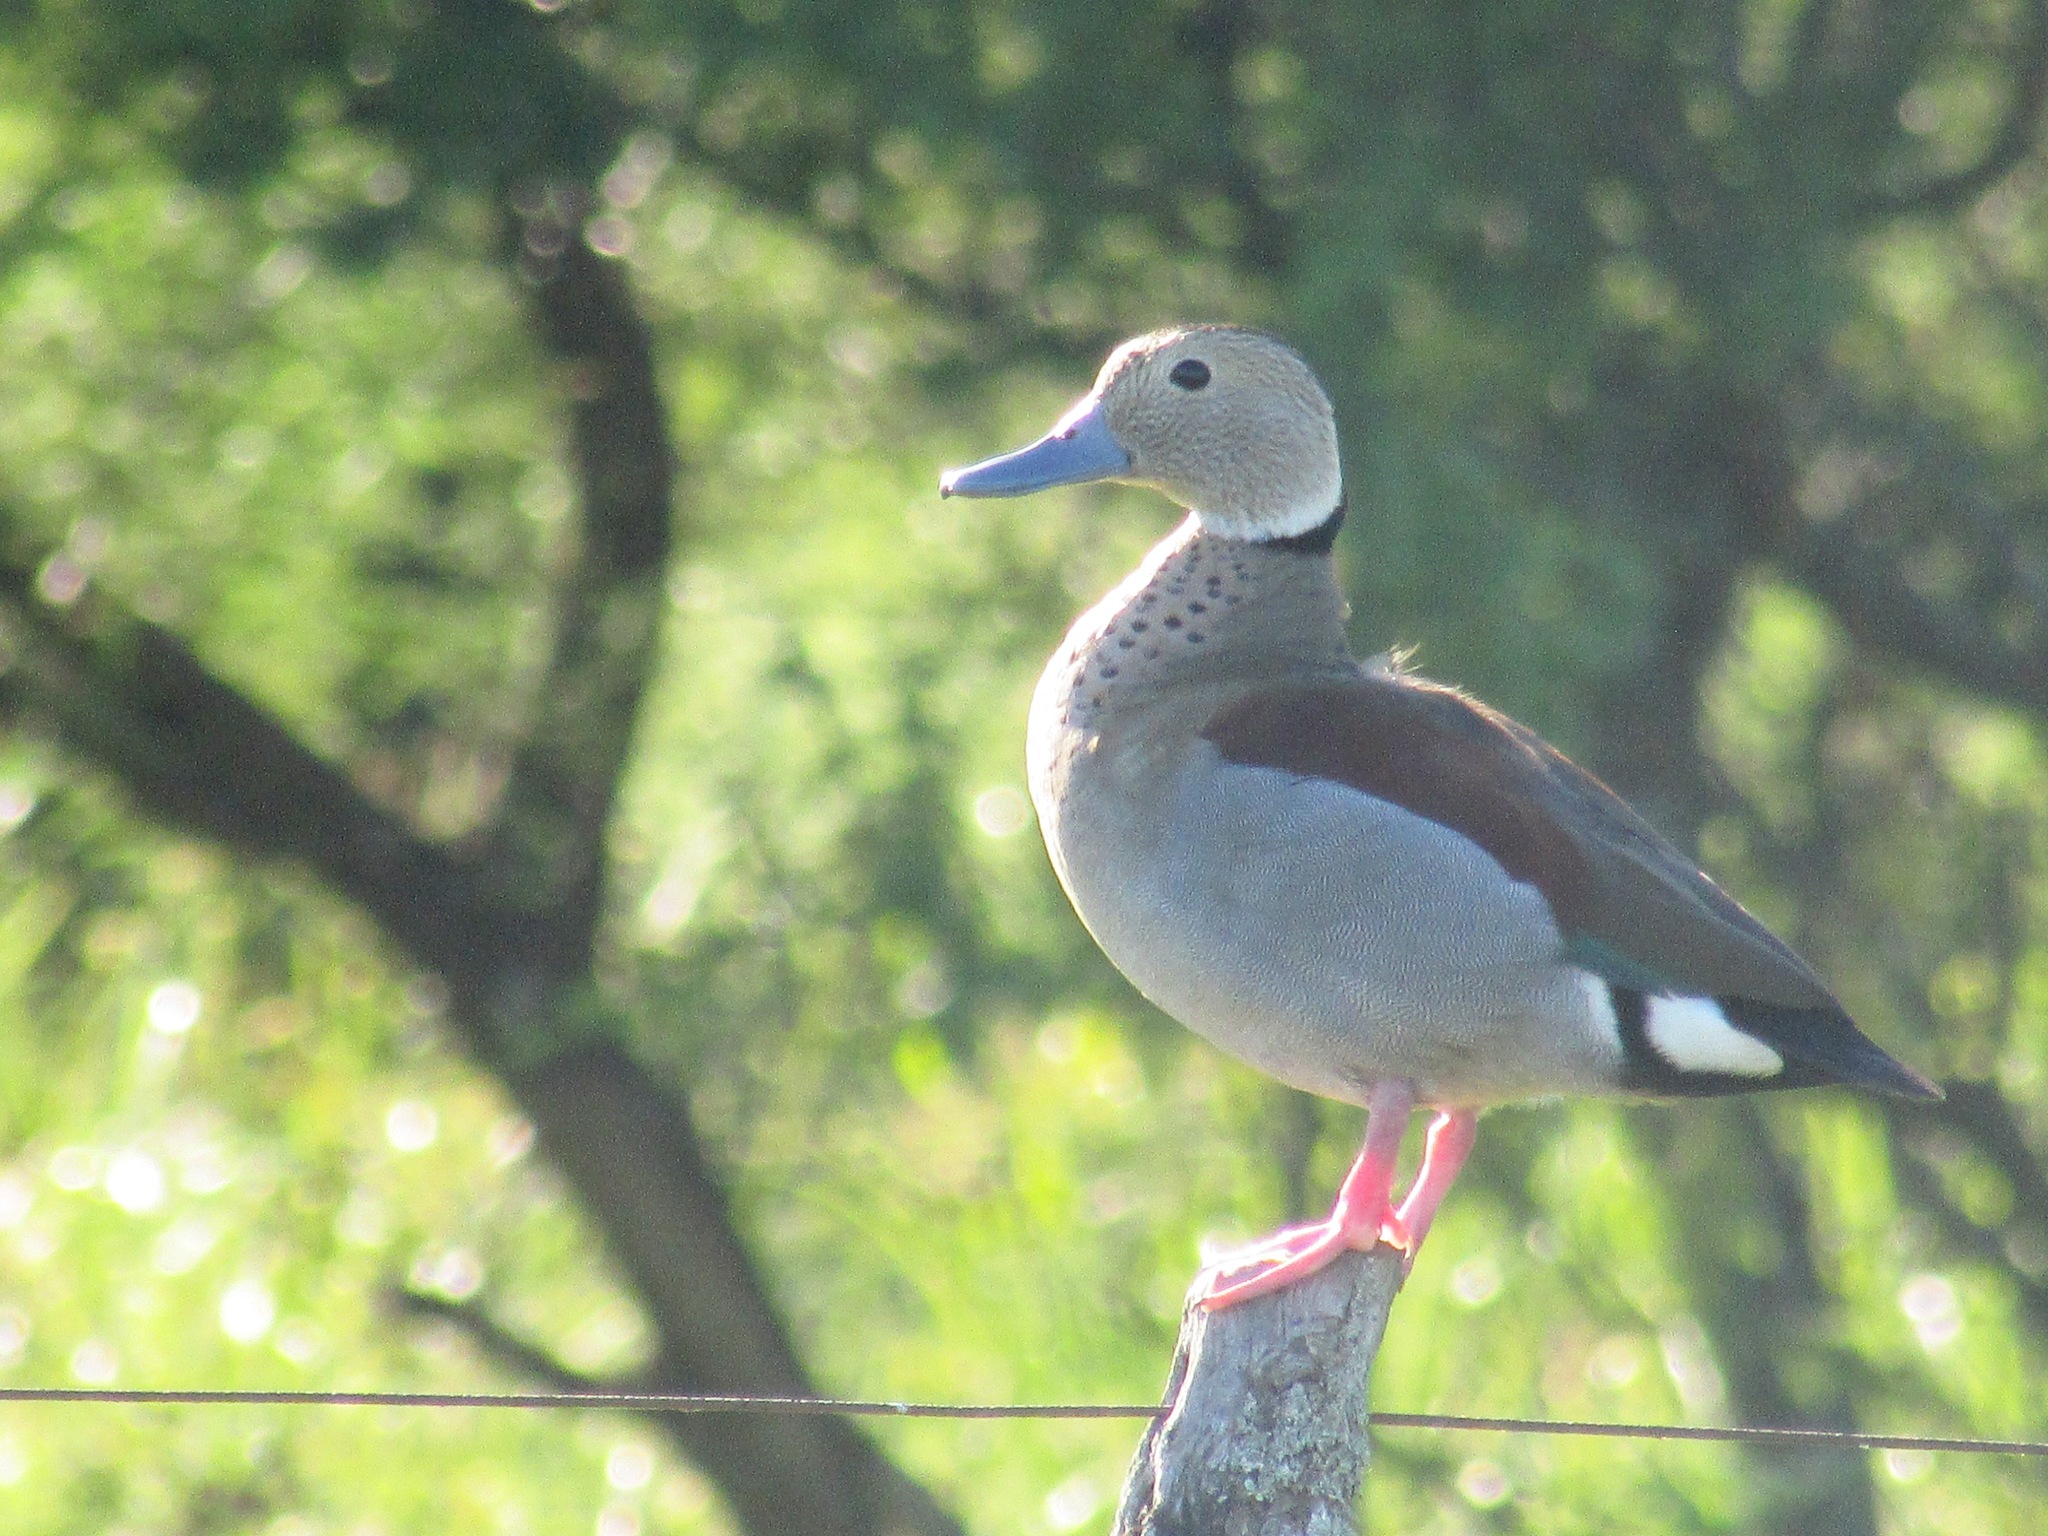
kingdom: Animalia
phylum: Chordata
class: Aves
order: Anseriformes
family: Anatidae
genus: Callonetta
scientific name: Callonetta leucophrys
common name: Ringed teal
